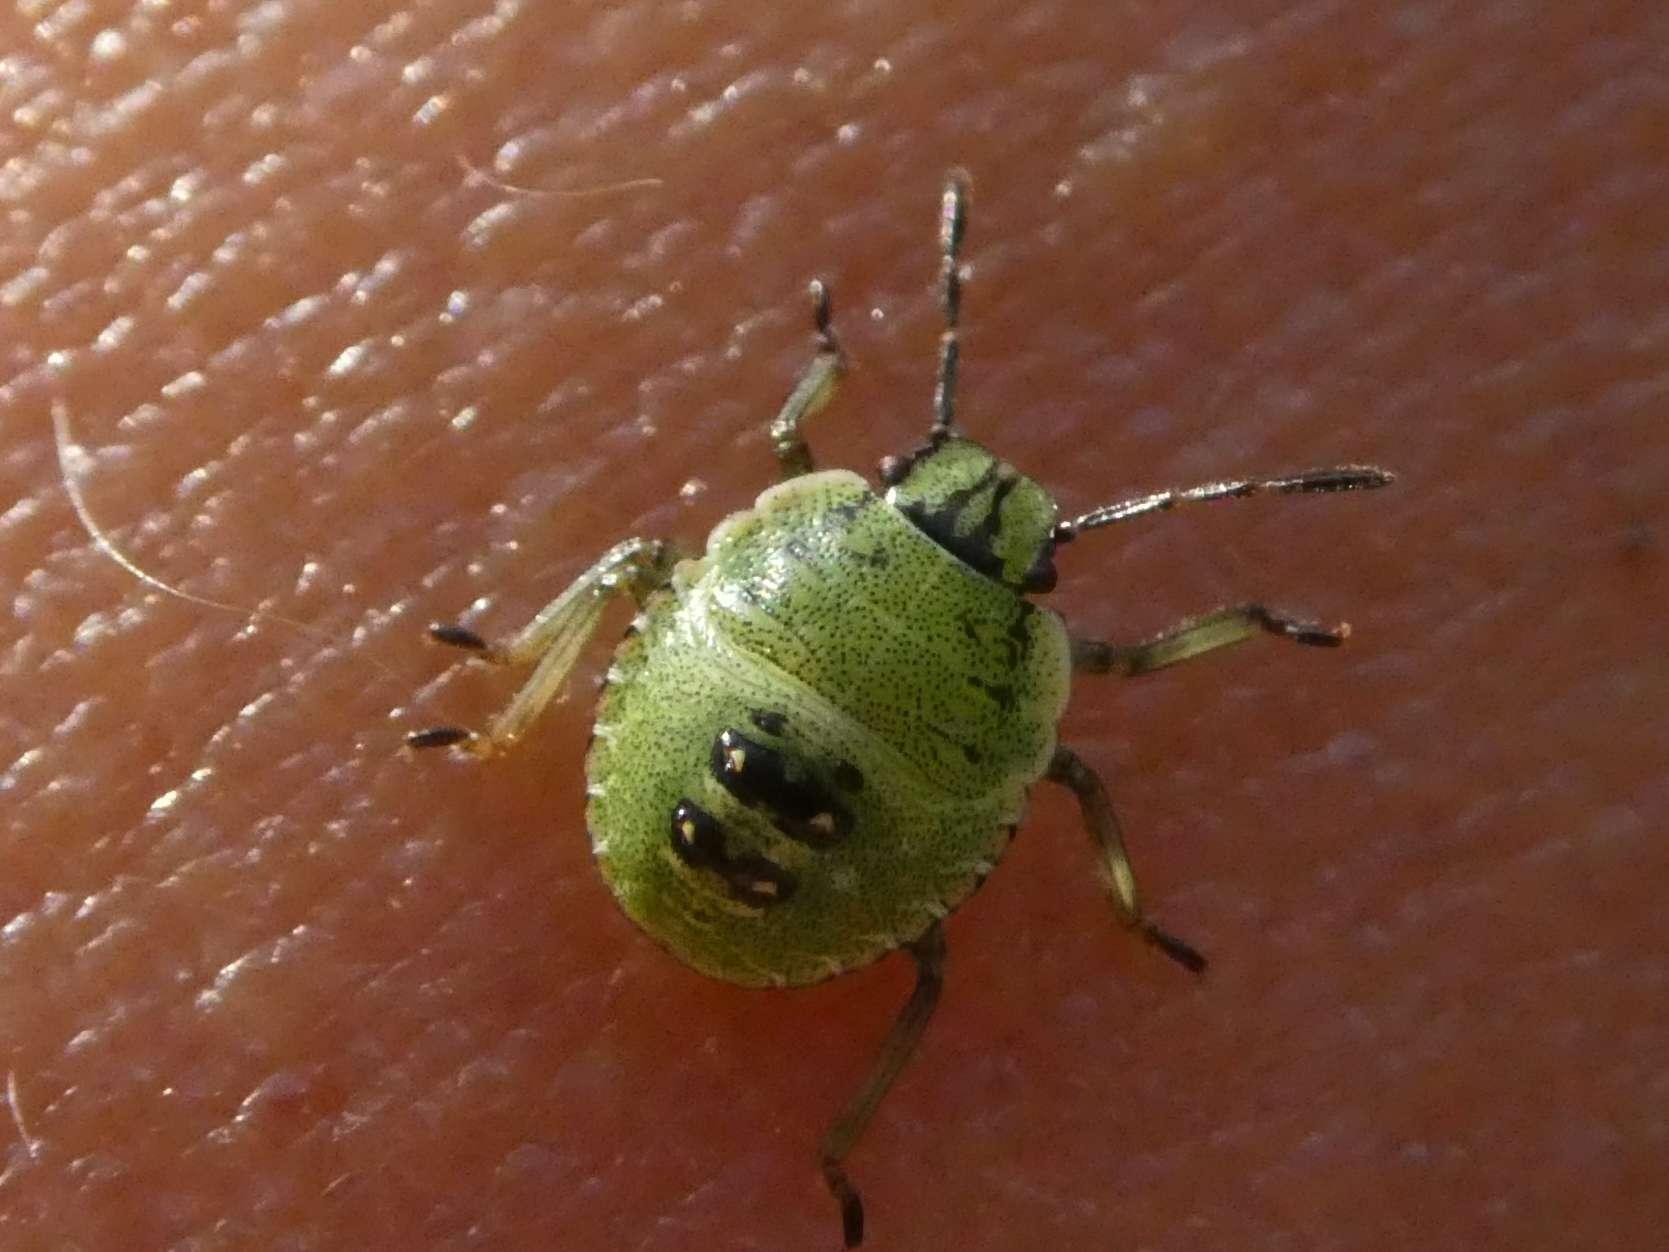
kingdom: Animalia
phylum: Arthropoda
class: Insecta
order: Hemiptera
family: Pentatomidae
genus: Palomena
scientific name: Palomena prasina
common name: Green shieldbug
